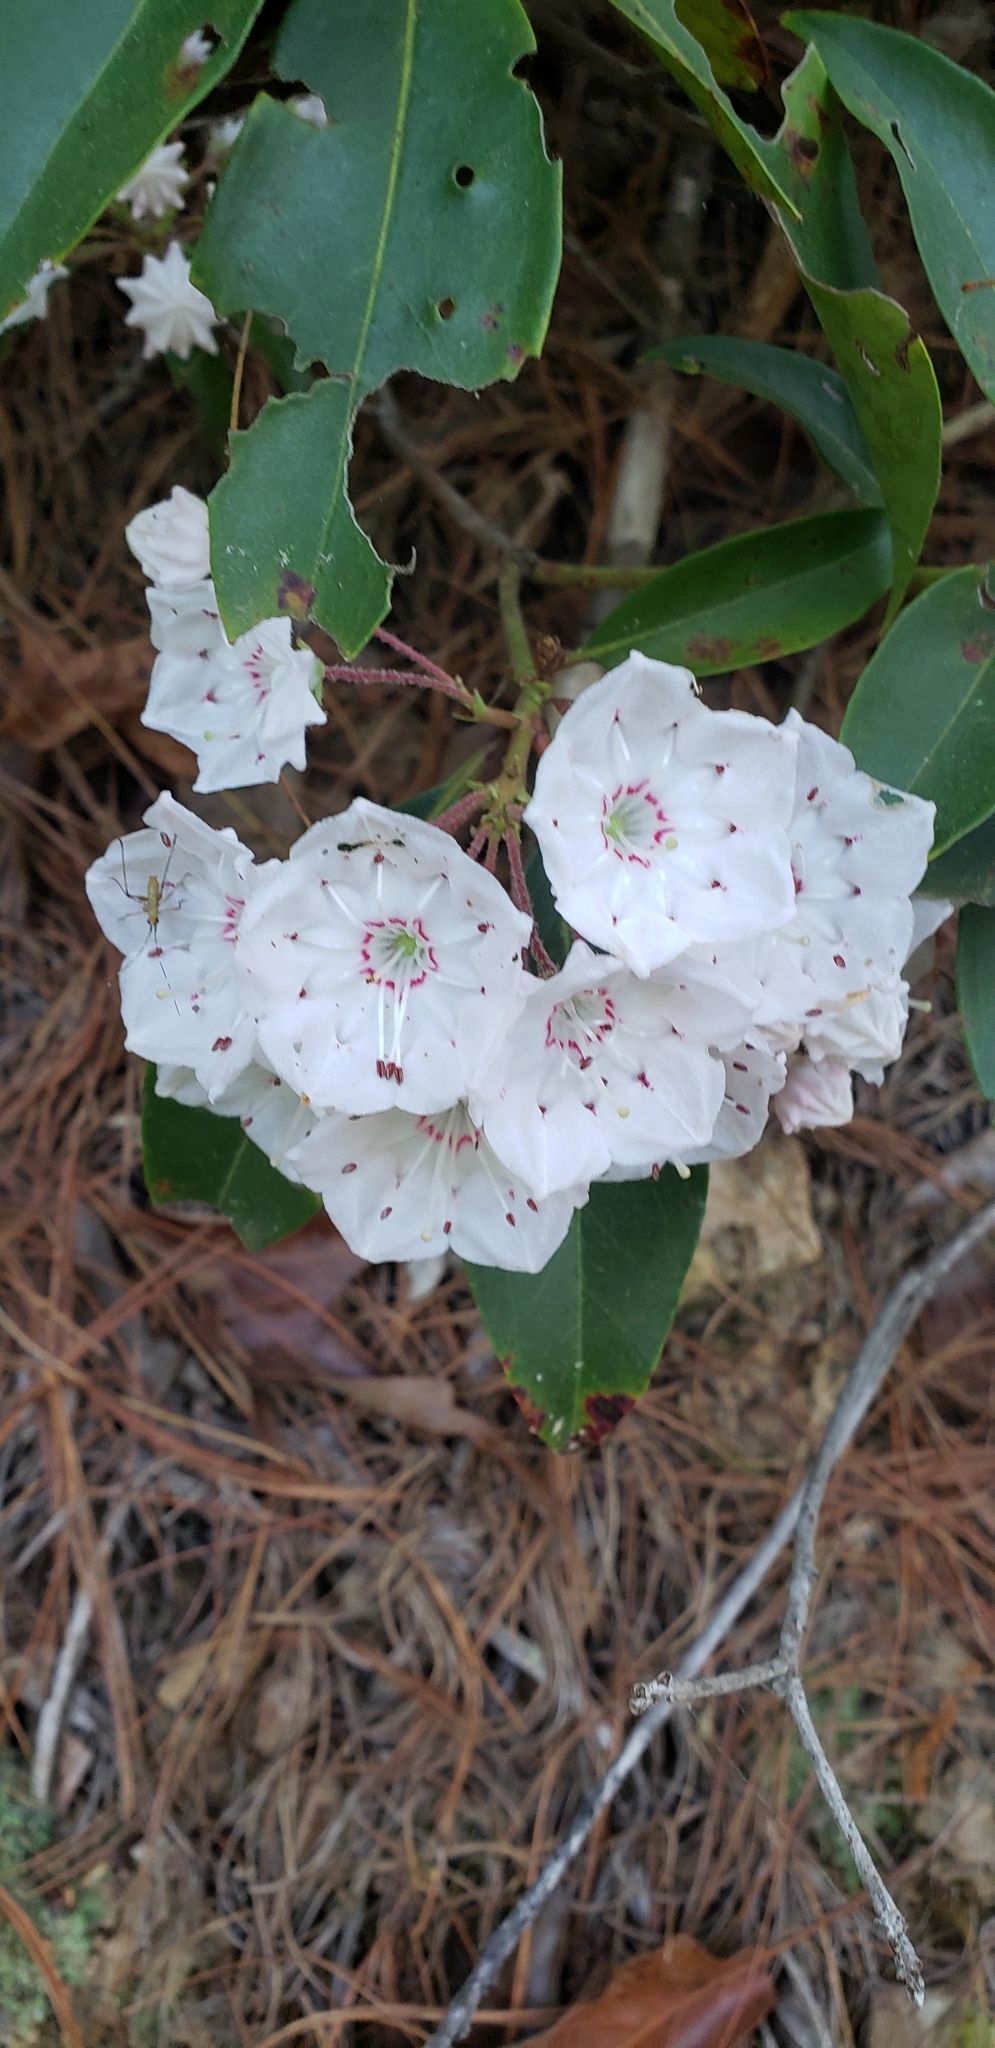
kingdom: Plantae
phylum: Tracheophyta
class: Magnoliopsida
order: Ericales
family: Ericaceae
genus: Kalmia
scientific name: Kalmia latifolia
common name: Mountain-laurel
